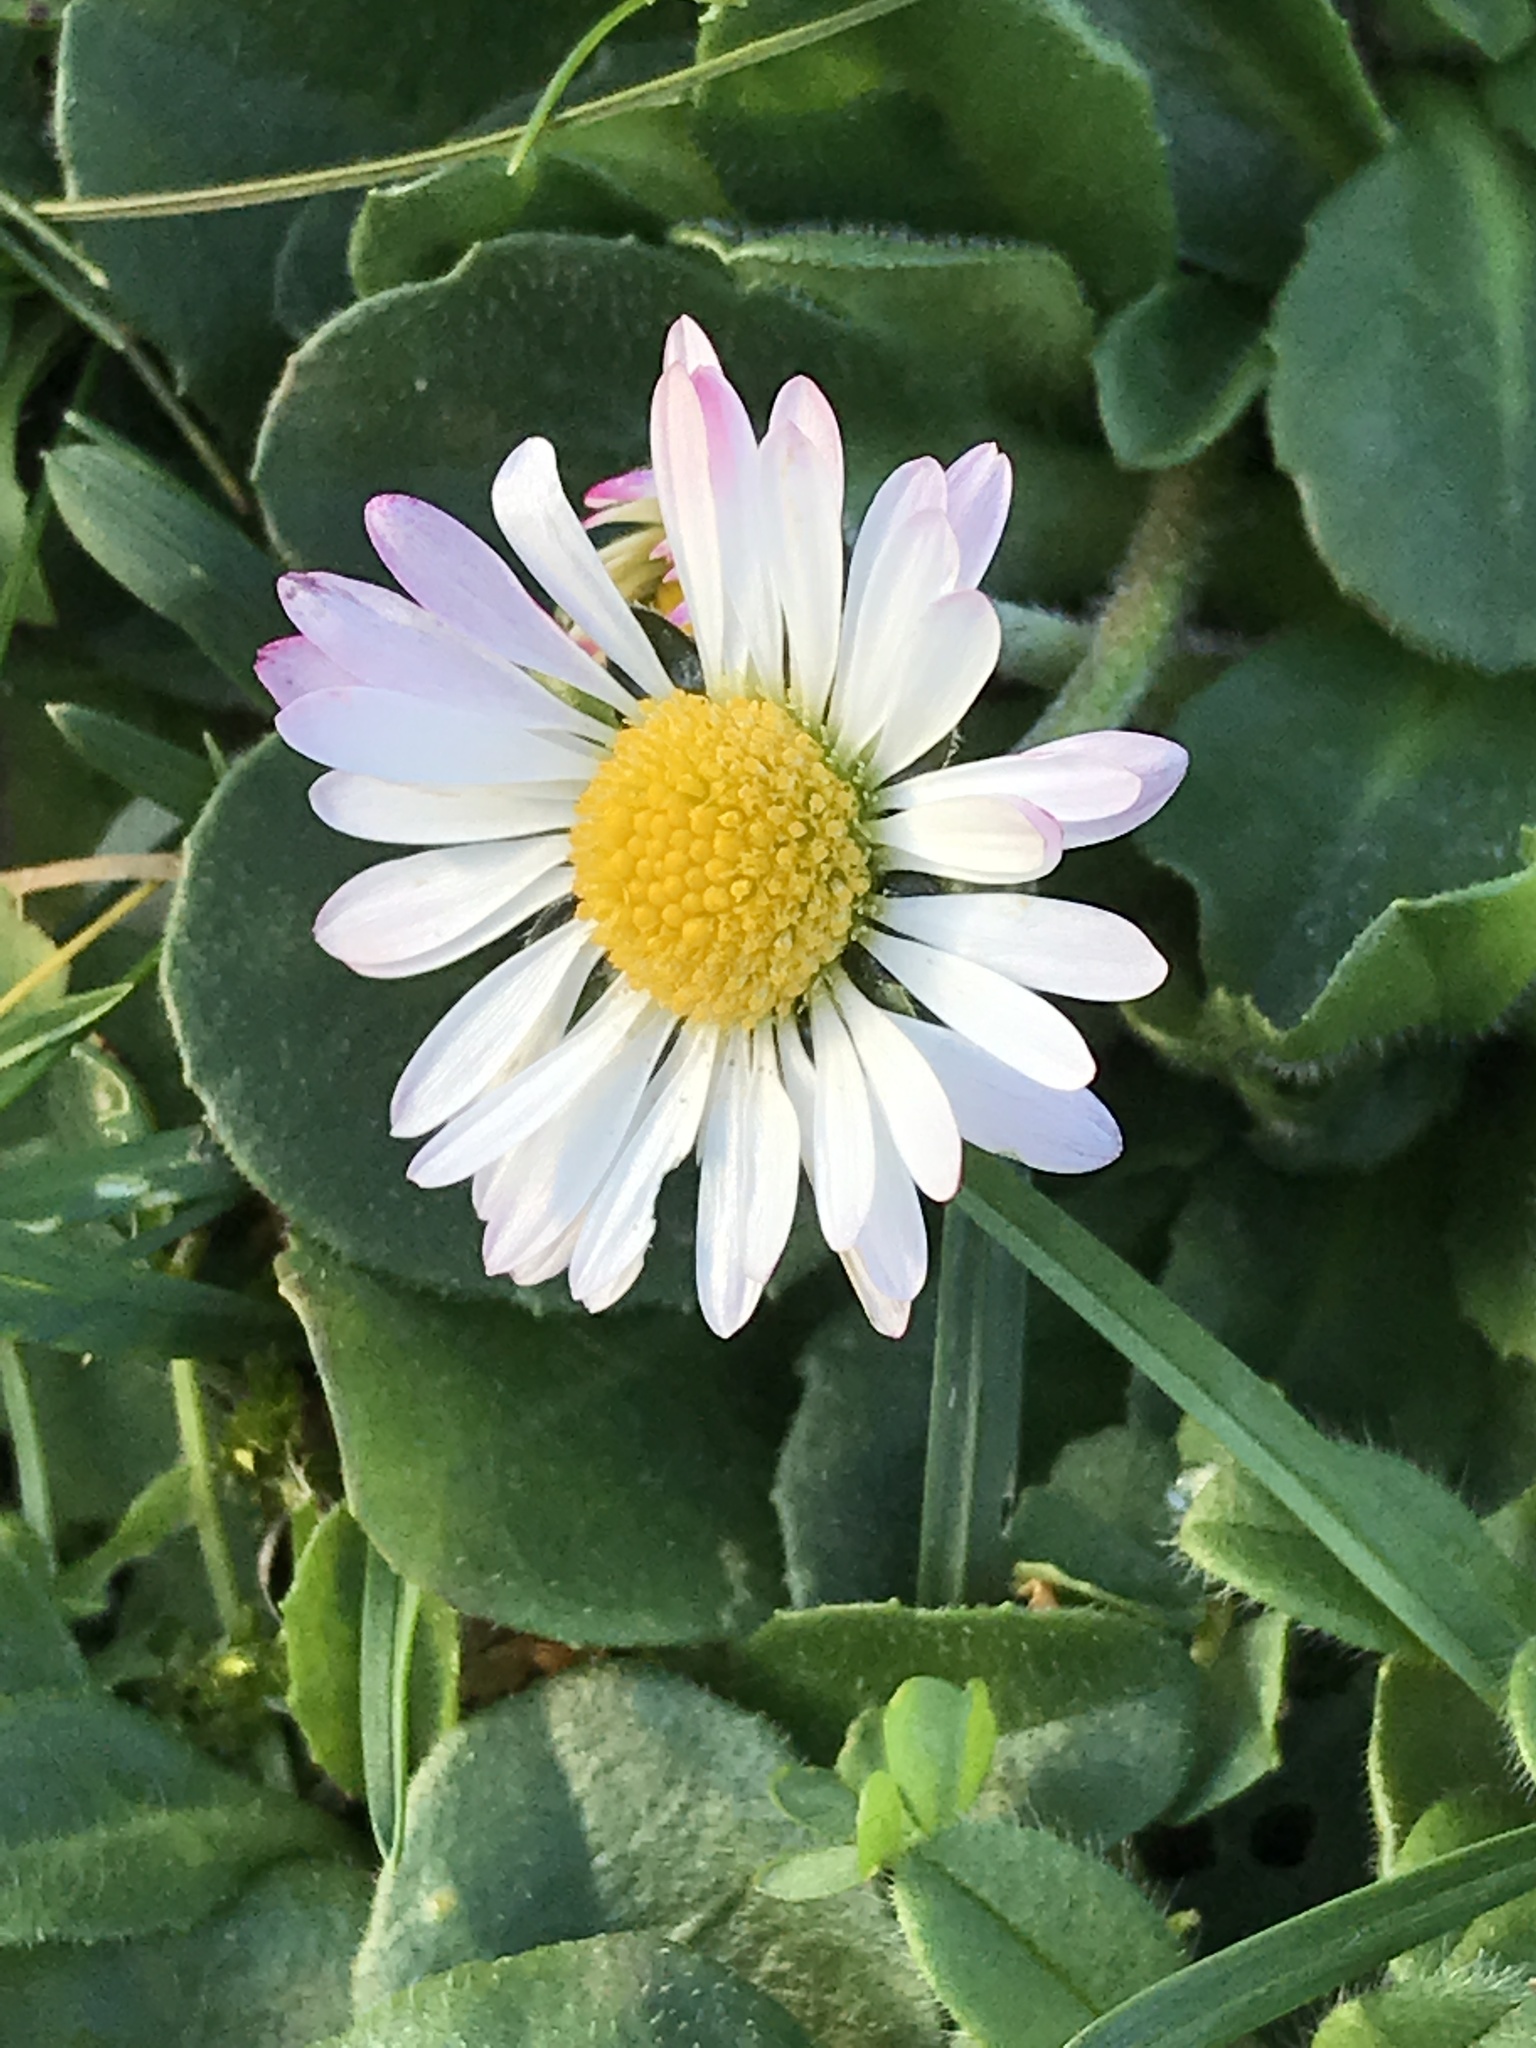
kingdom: Plantae
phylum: Tracheophyta
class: Magnoliopsida
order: Asterales
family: Asteraceae
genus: Bellis
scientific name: Bellis perennis
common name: Lawndaisy
